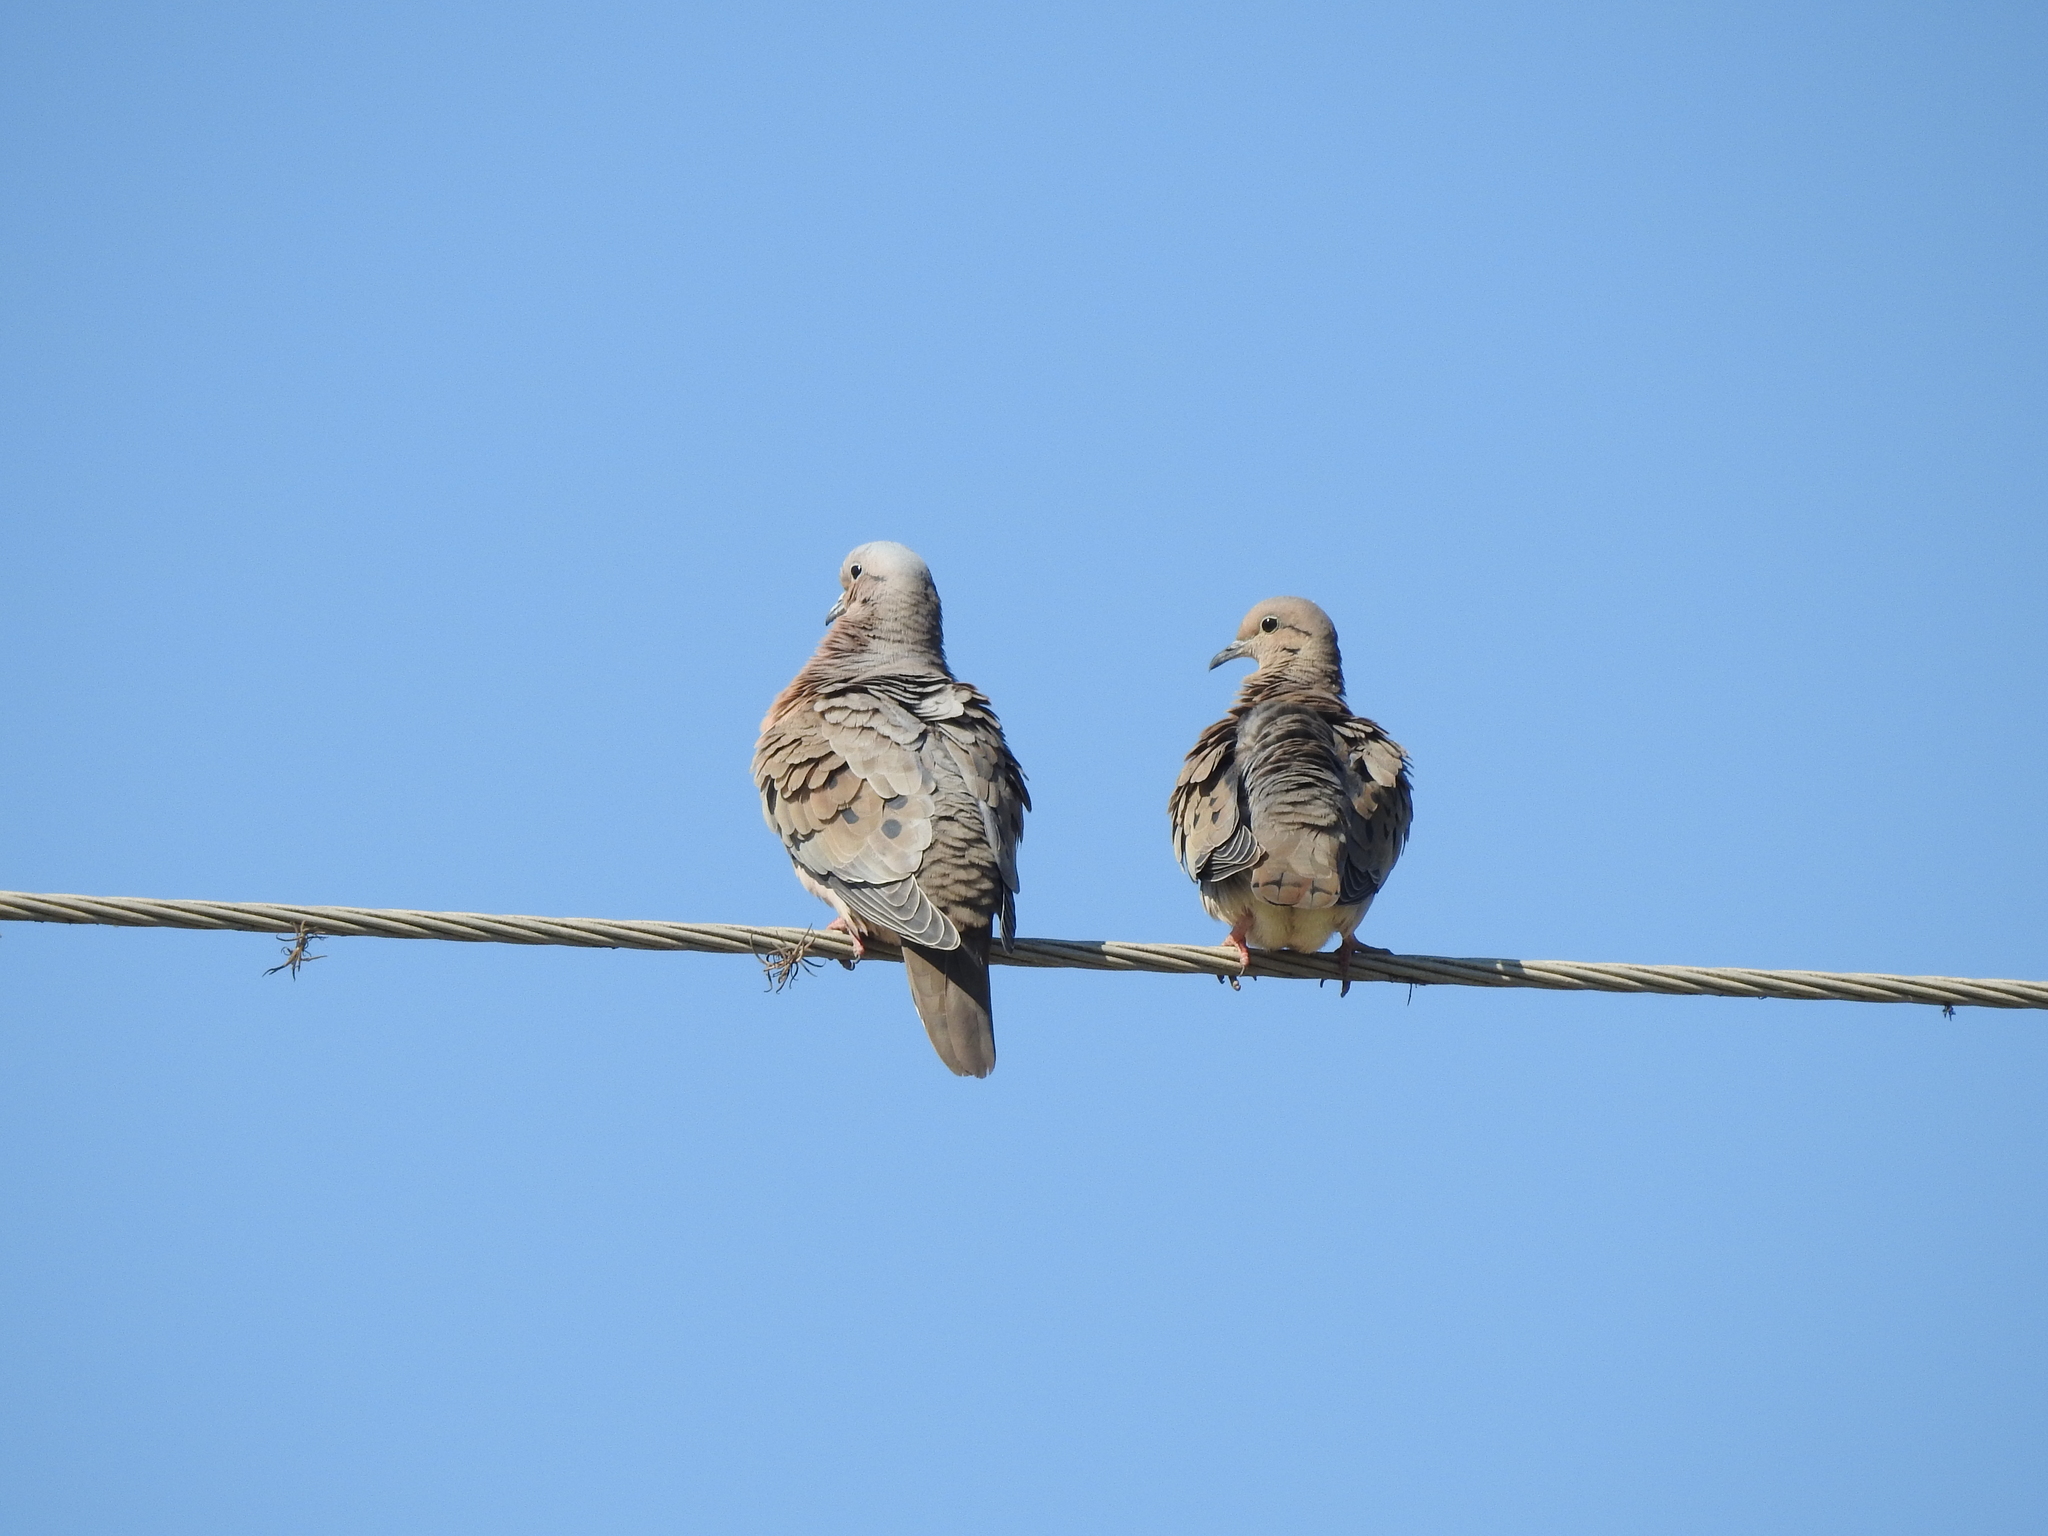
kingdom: Animalia
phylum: Chordata
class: Aves
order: Columbiformes
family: Columbidae
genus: Zenaida
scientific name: Zenaida auriculata
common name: Eared dove
